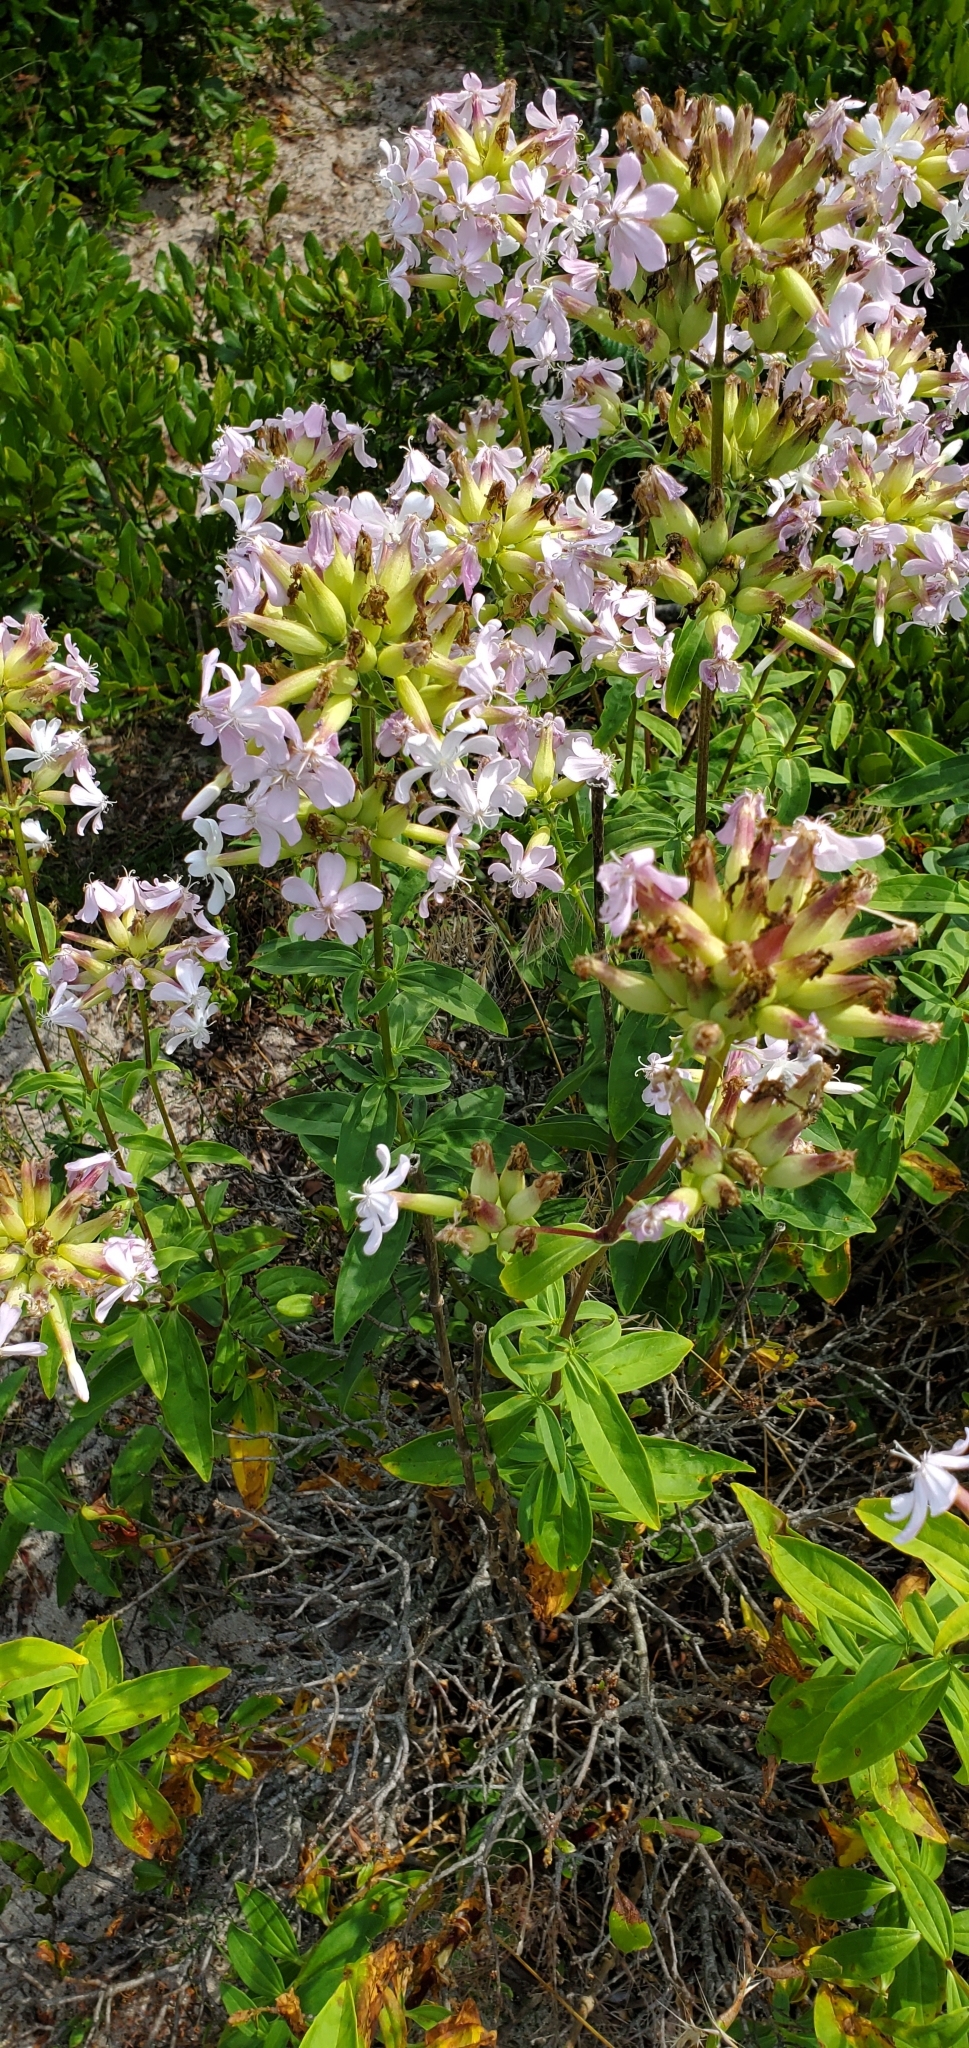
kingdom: Plantae
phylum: Tracheophyta
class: Magnoliopsida
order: Caryophyllales
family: Caryophyllaceae
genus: Saponaria
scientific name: Saponaria officinalis
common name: Soapwort
